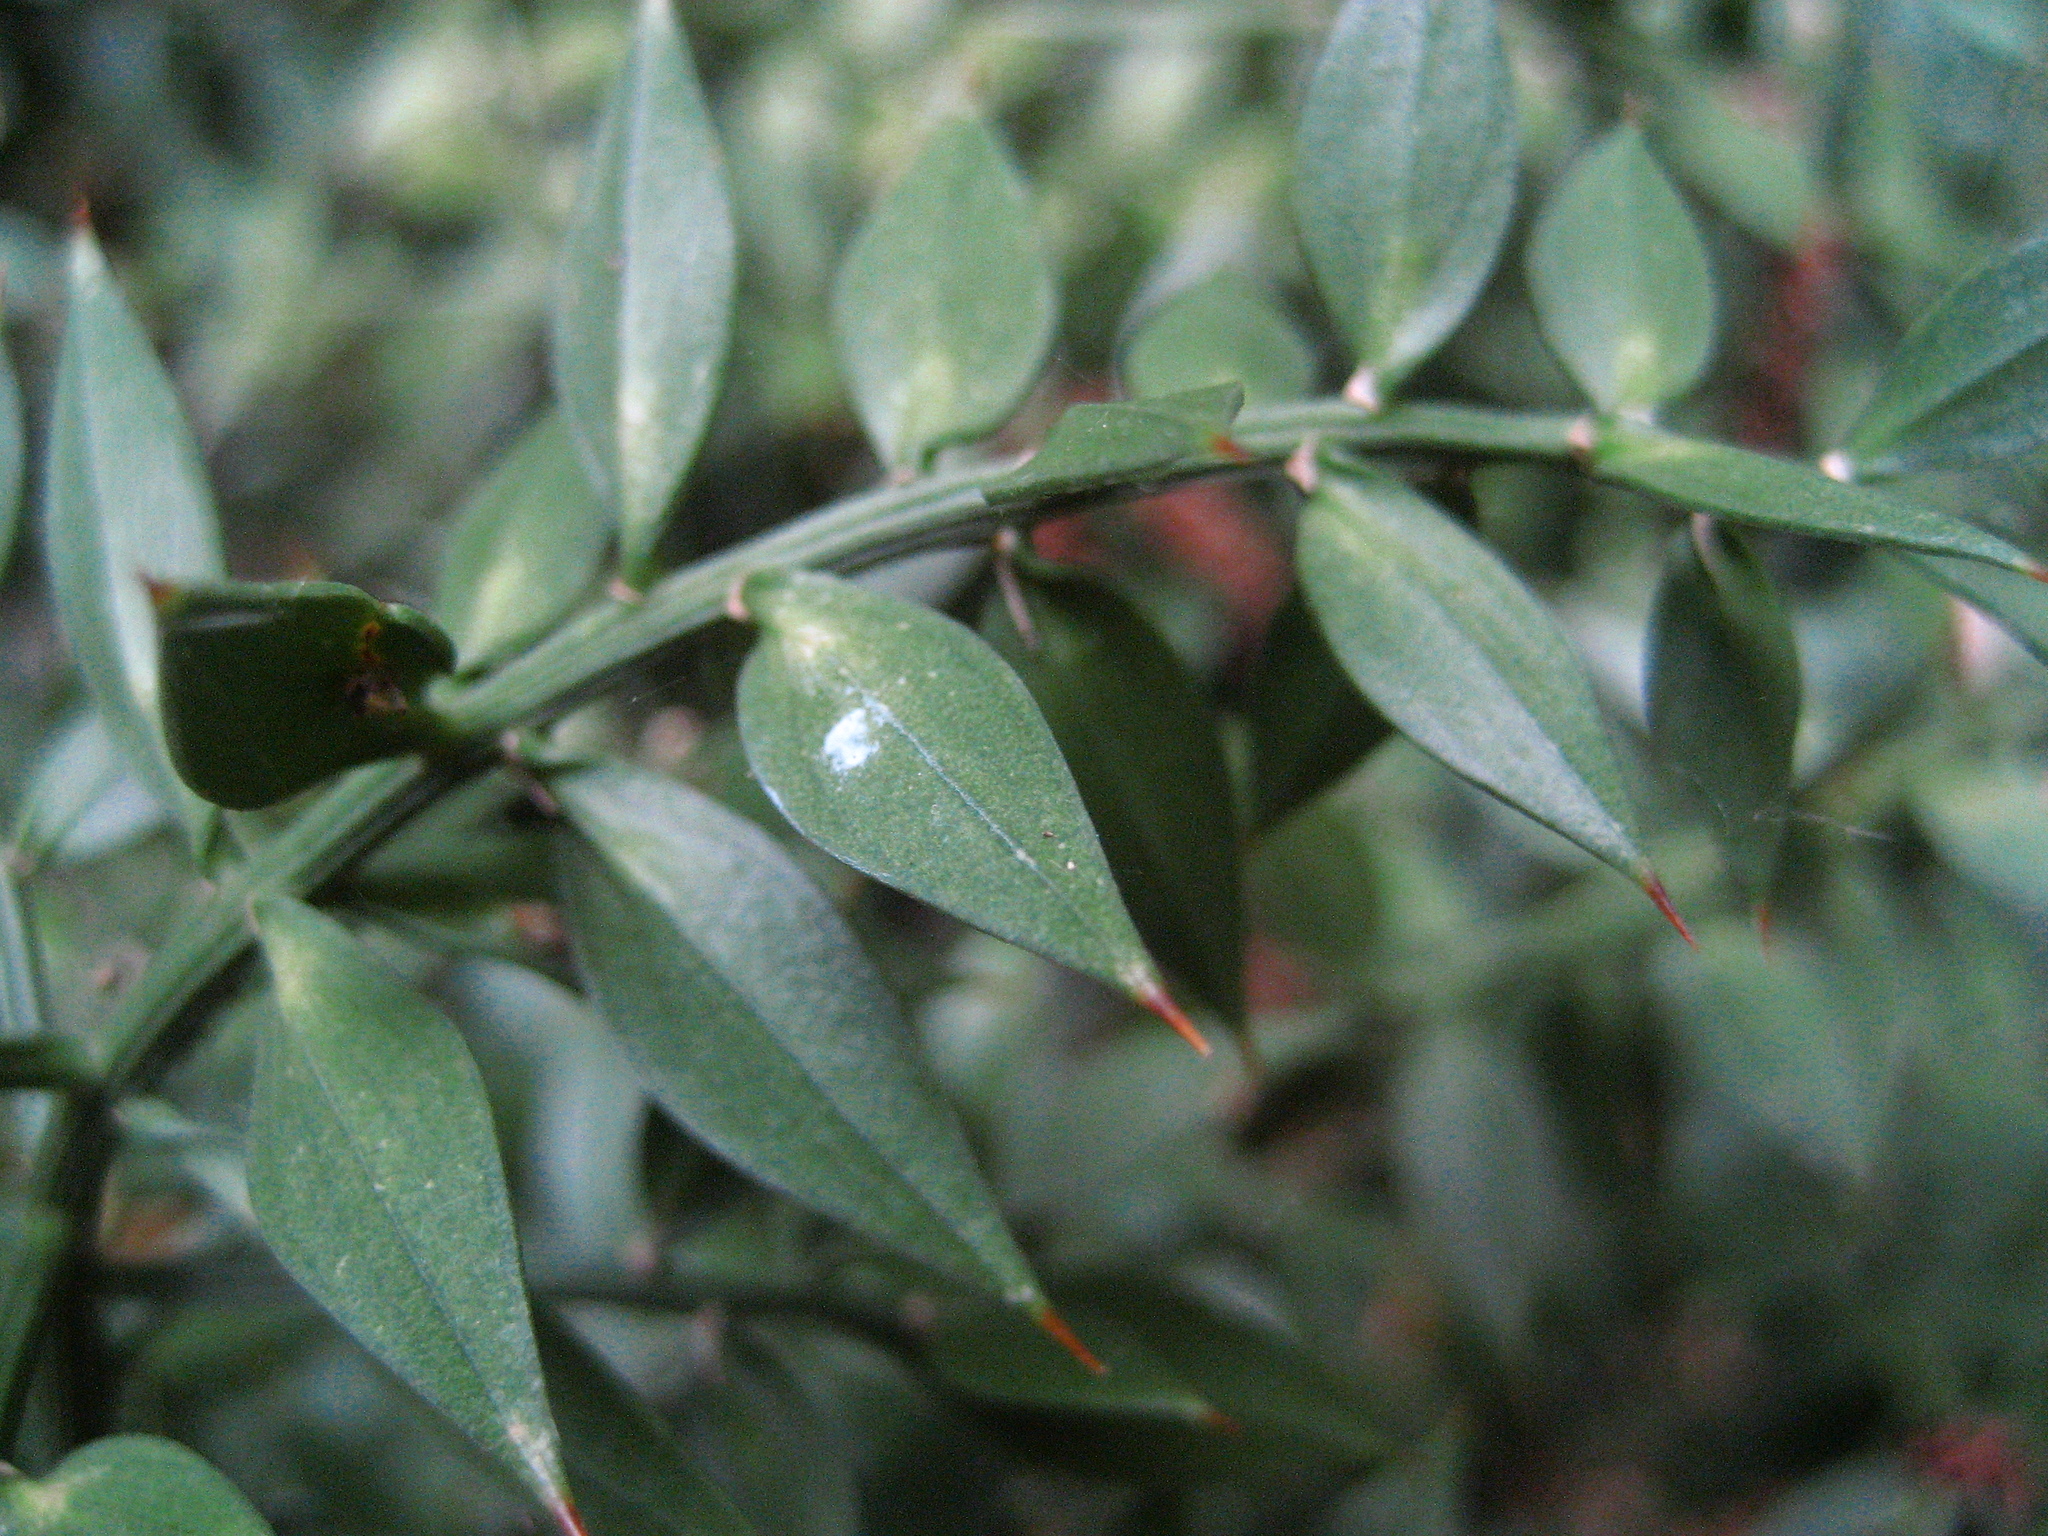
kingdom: Plantae
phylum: Tracheophyta
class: Liliopsida
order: Asparagales
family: Asparagaceae
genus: Ruscus
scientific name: Ruscus aculeatus
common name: Butcher's-broom
